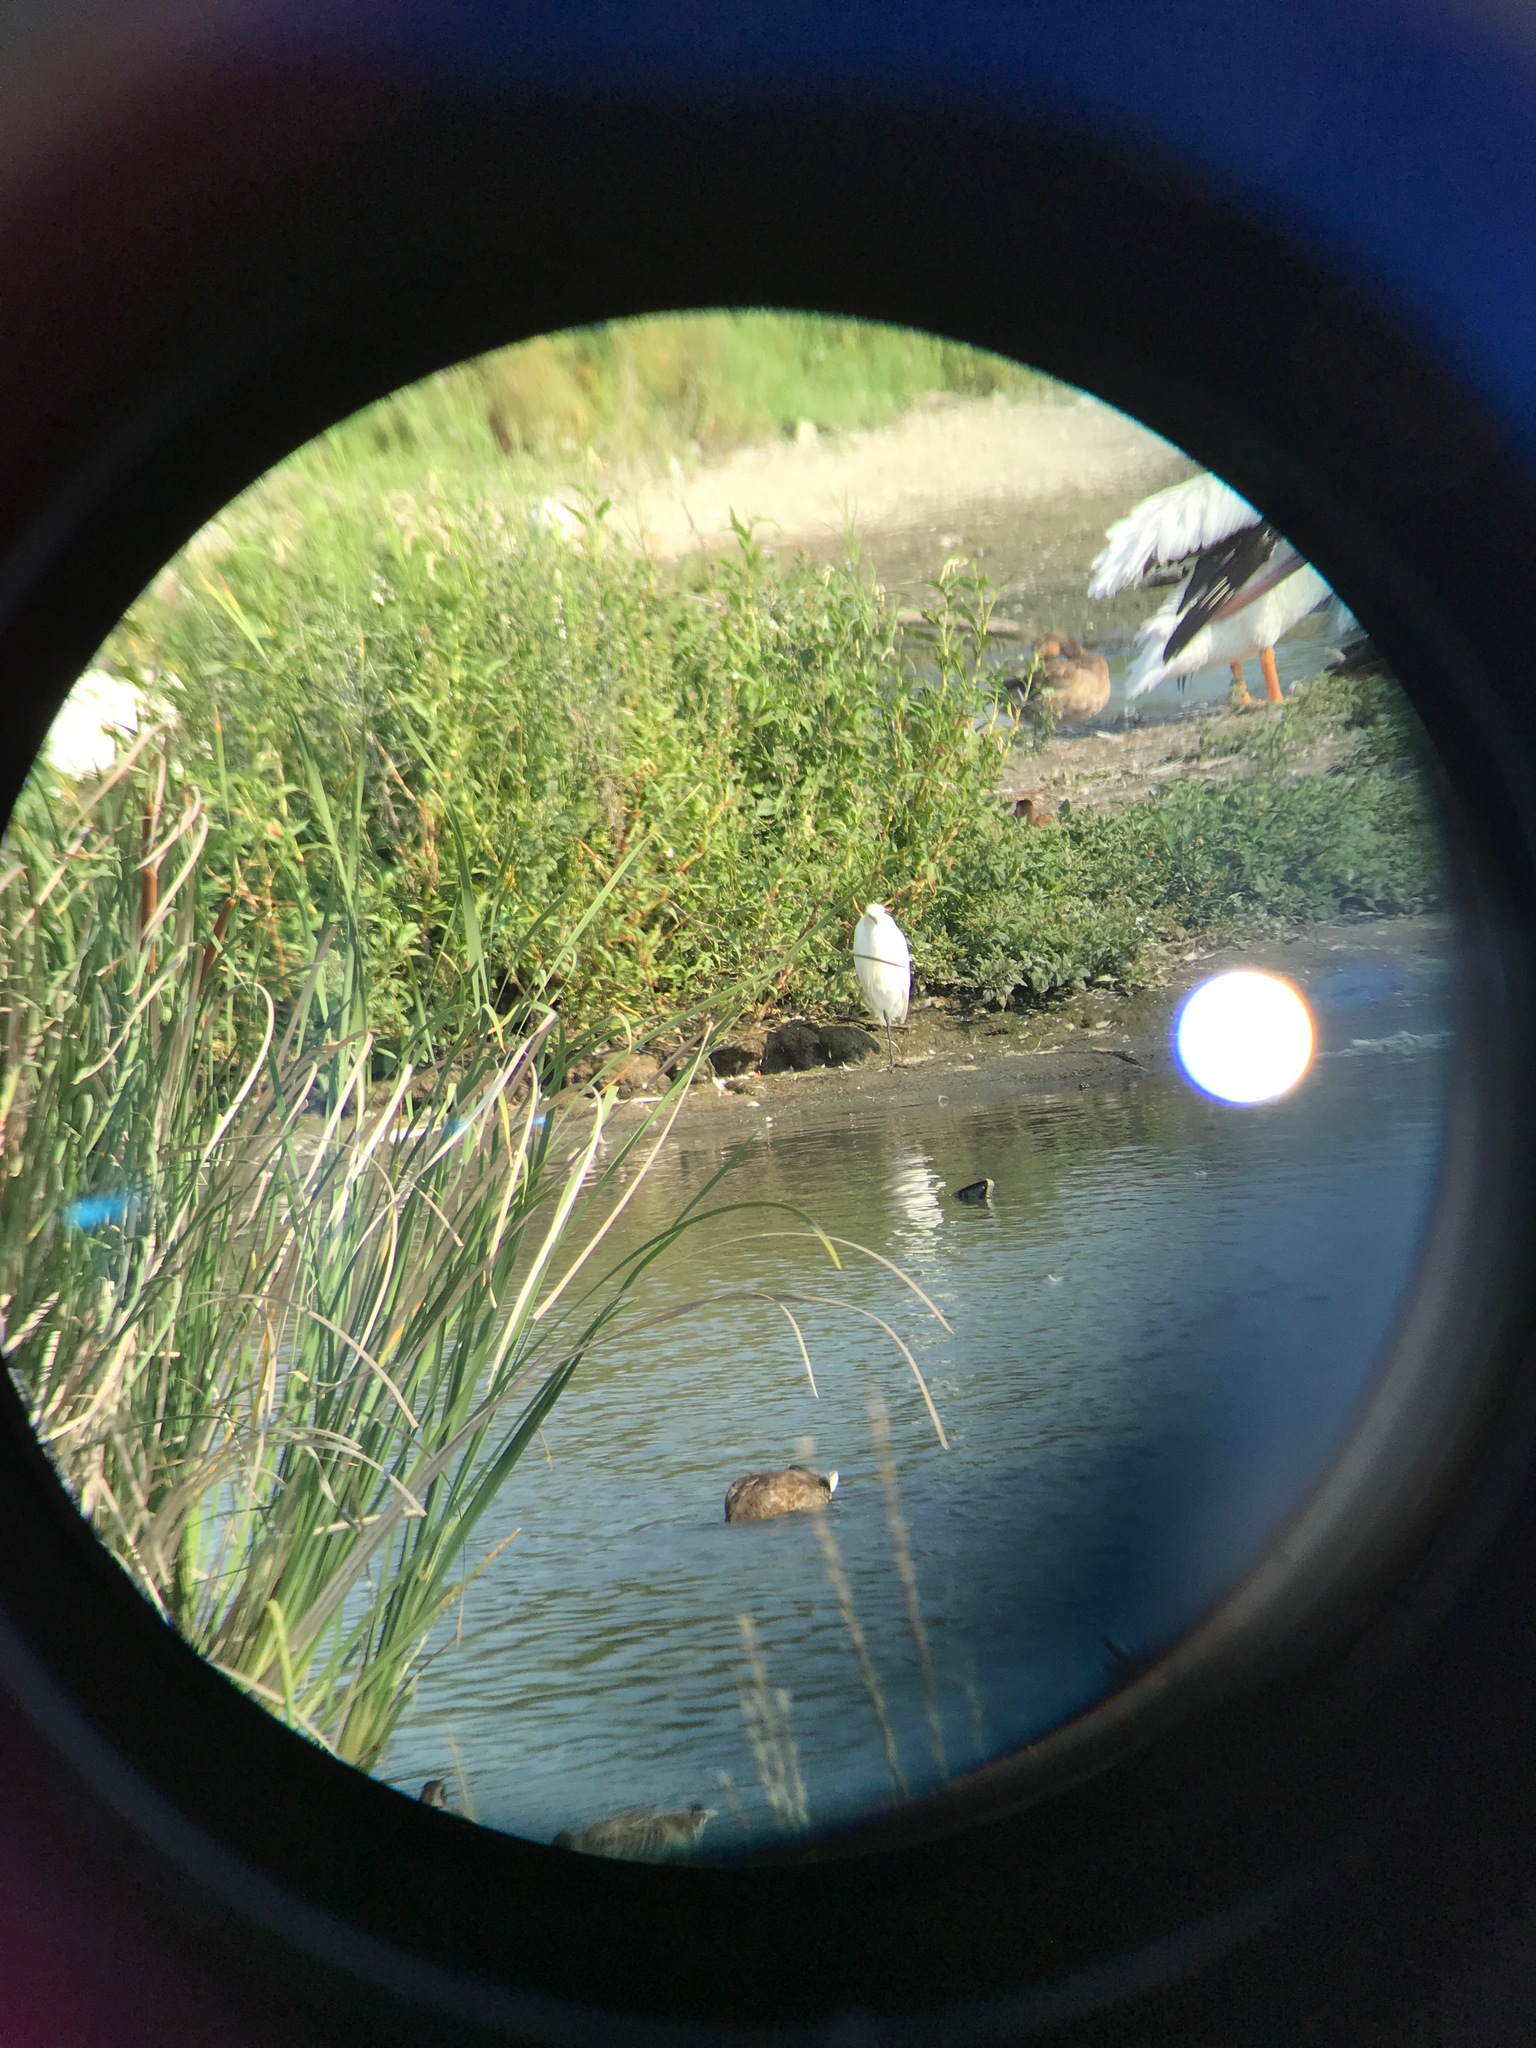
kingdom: Animalia
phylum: Chordata
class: Aves
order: Pelecaniformes
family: Ardeidae
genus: Egretta
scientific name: Egretta thula
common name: Snowy egret
